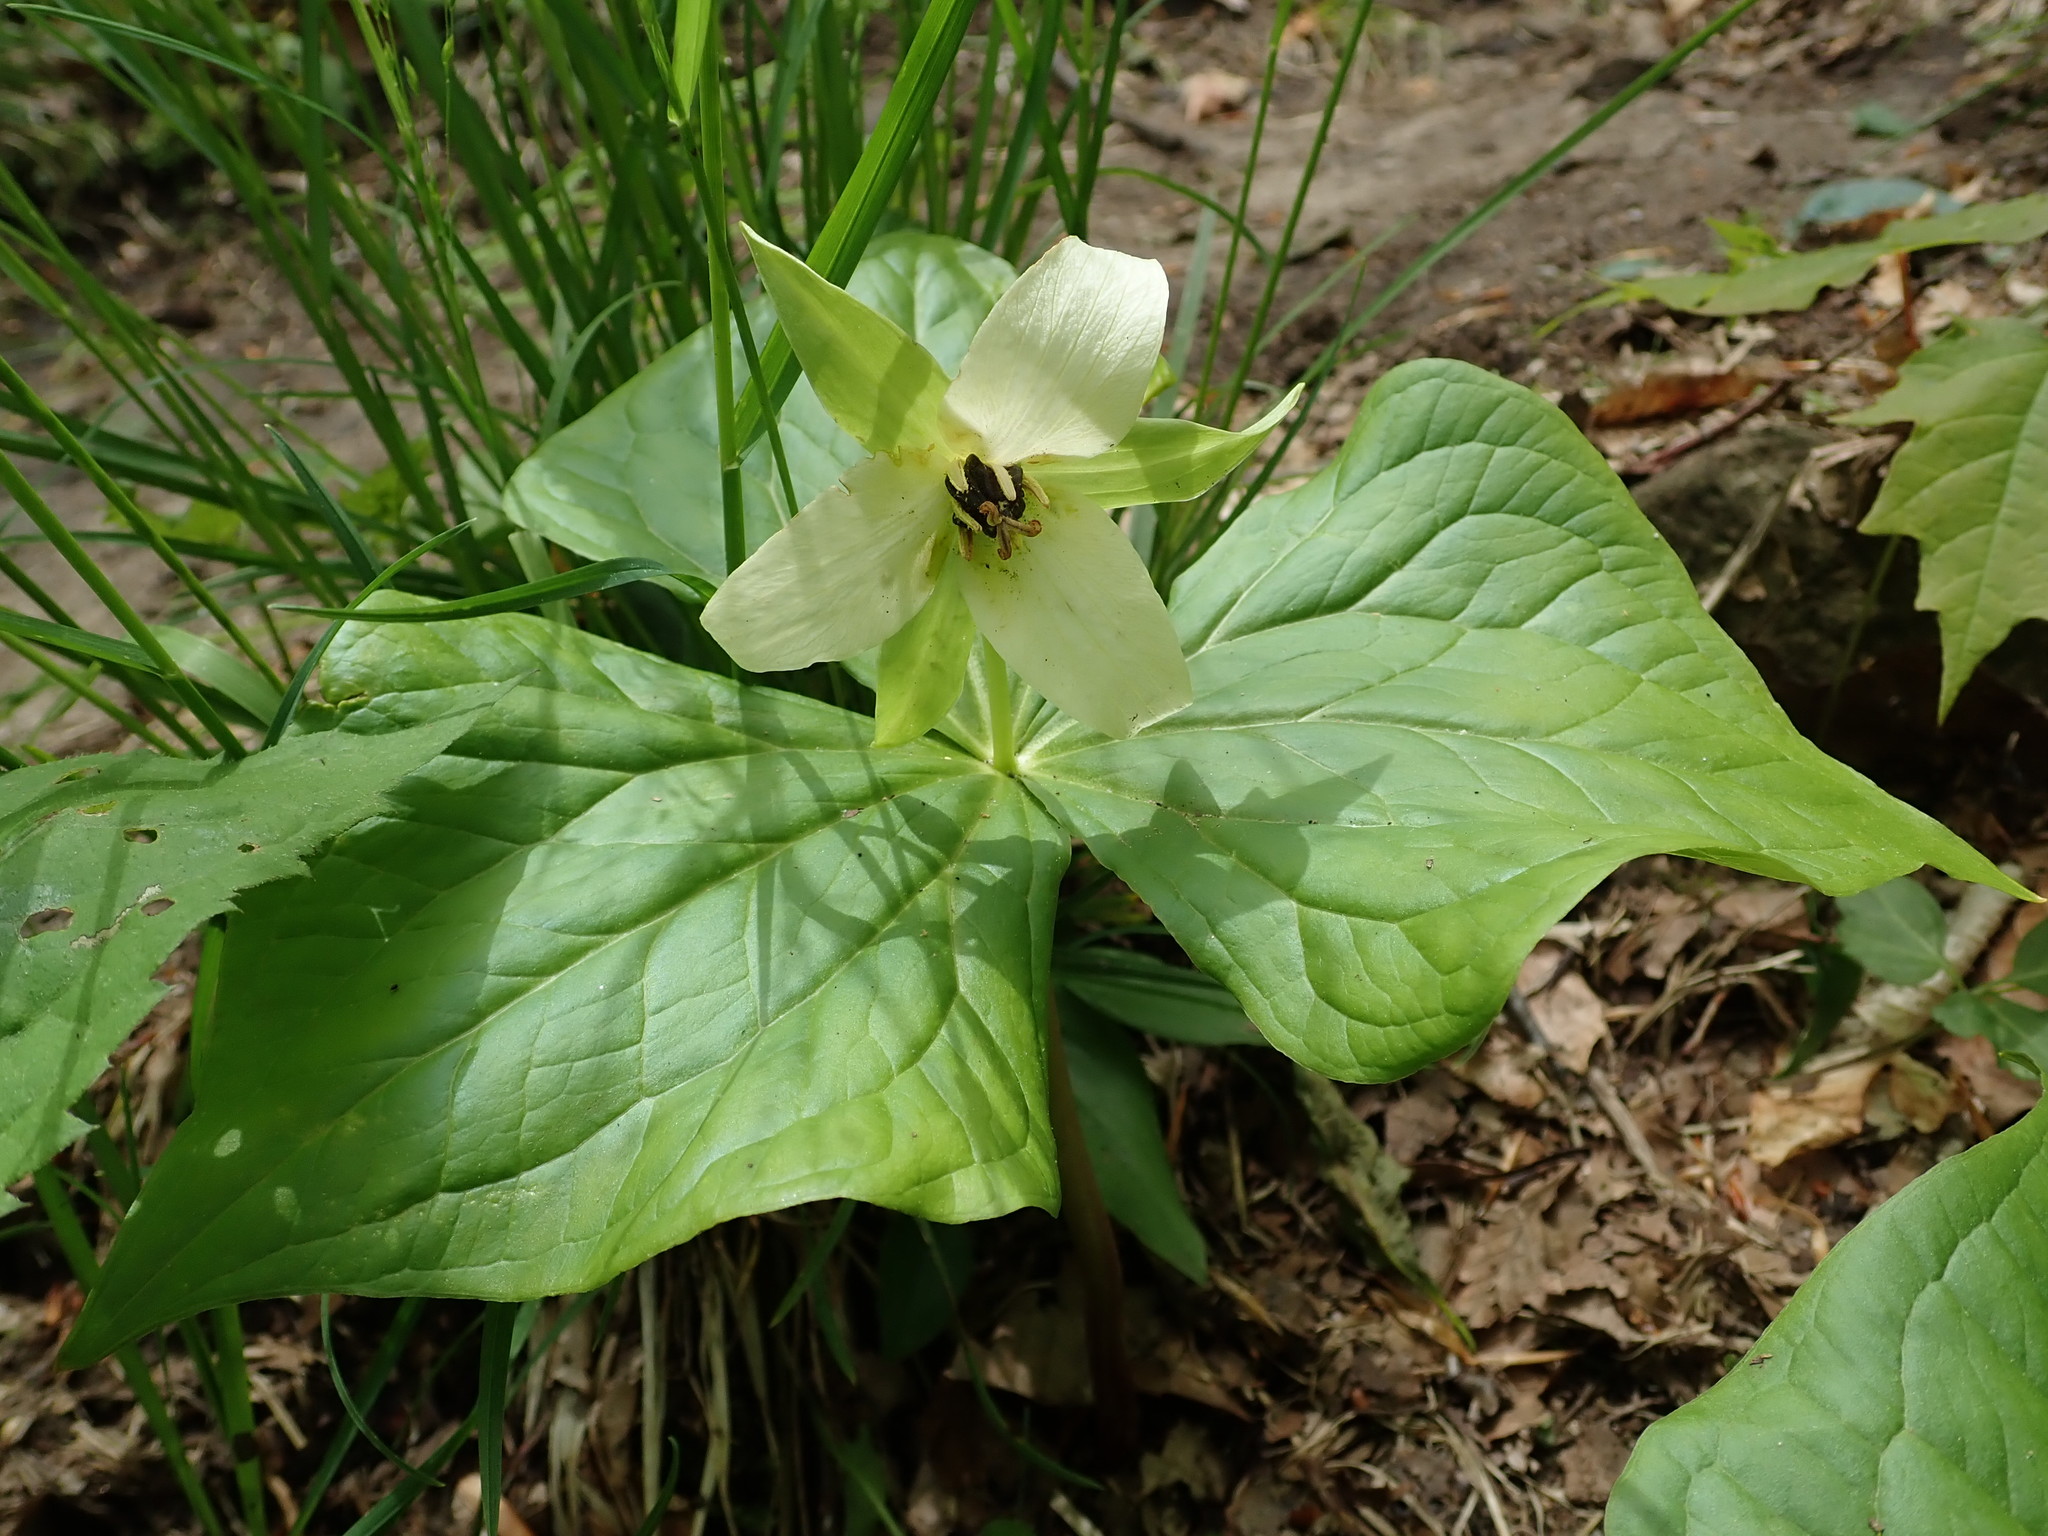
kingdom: Plantae
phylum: Tracheophyta
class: Liliopsida
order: Liliales
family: Melanthiaceae
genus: Trillium
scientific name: Trillium erectum
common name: Purple trillium
